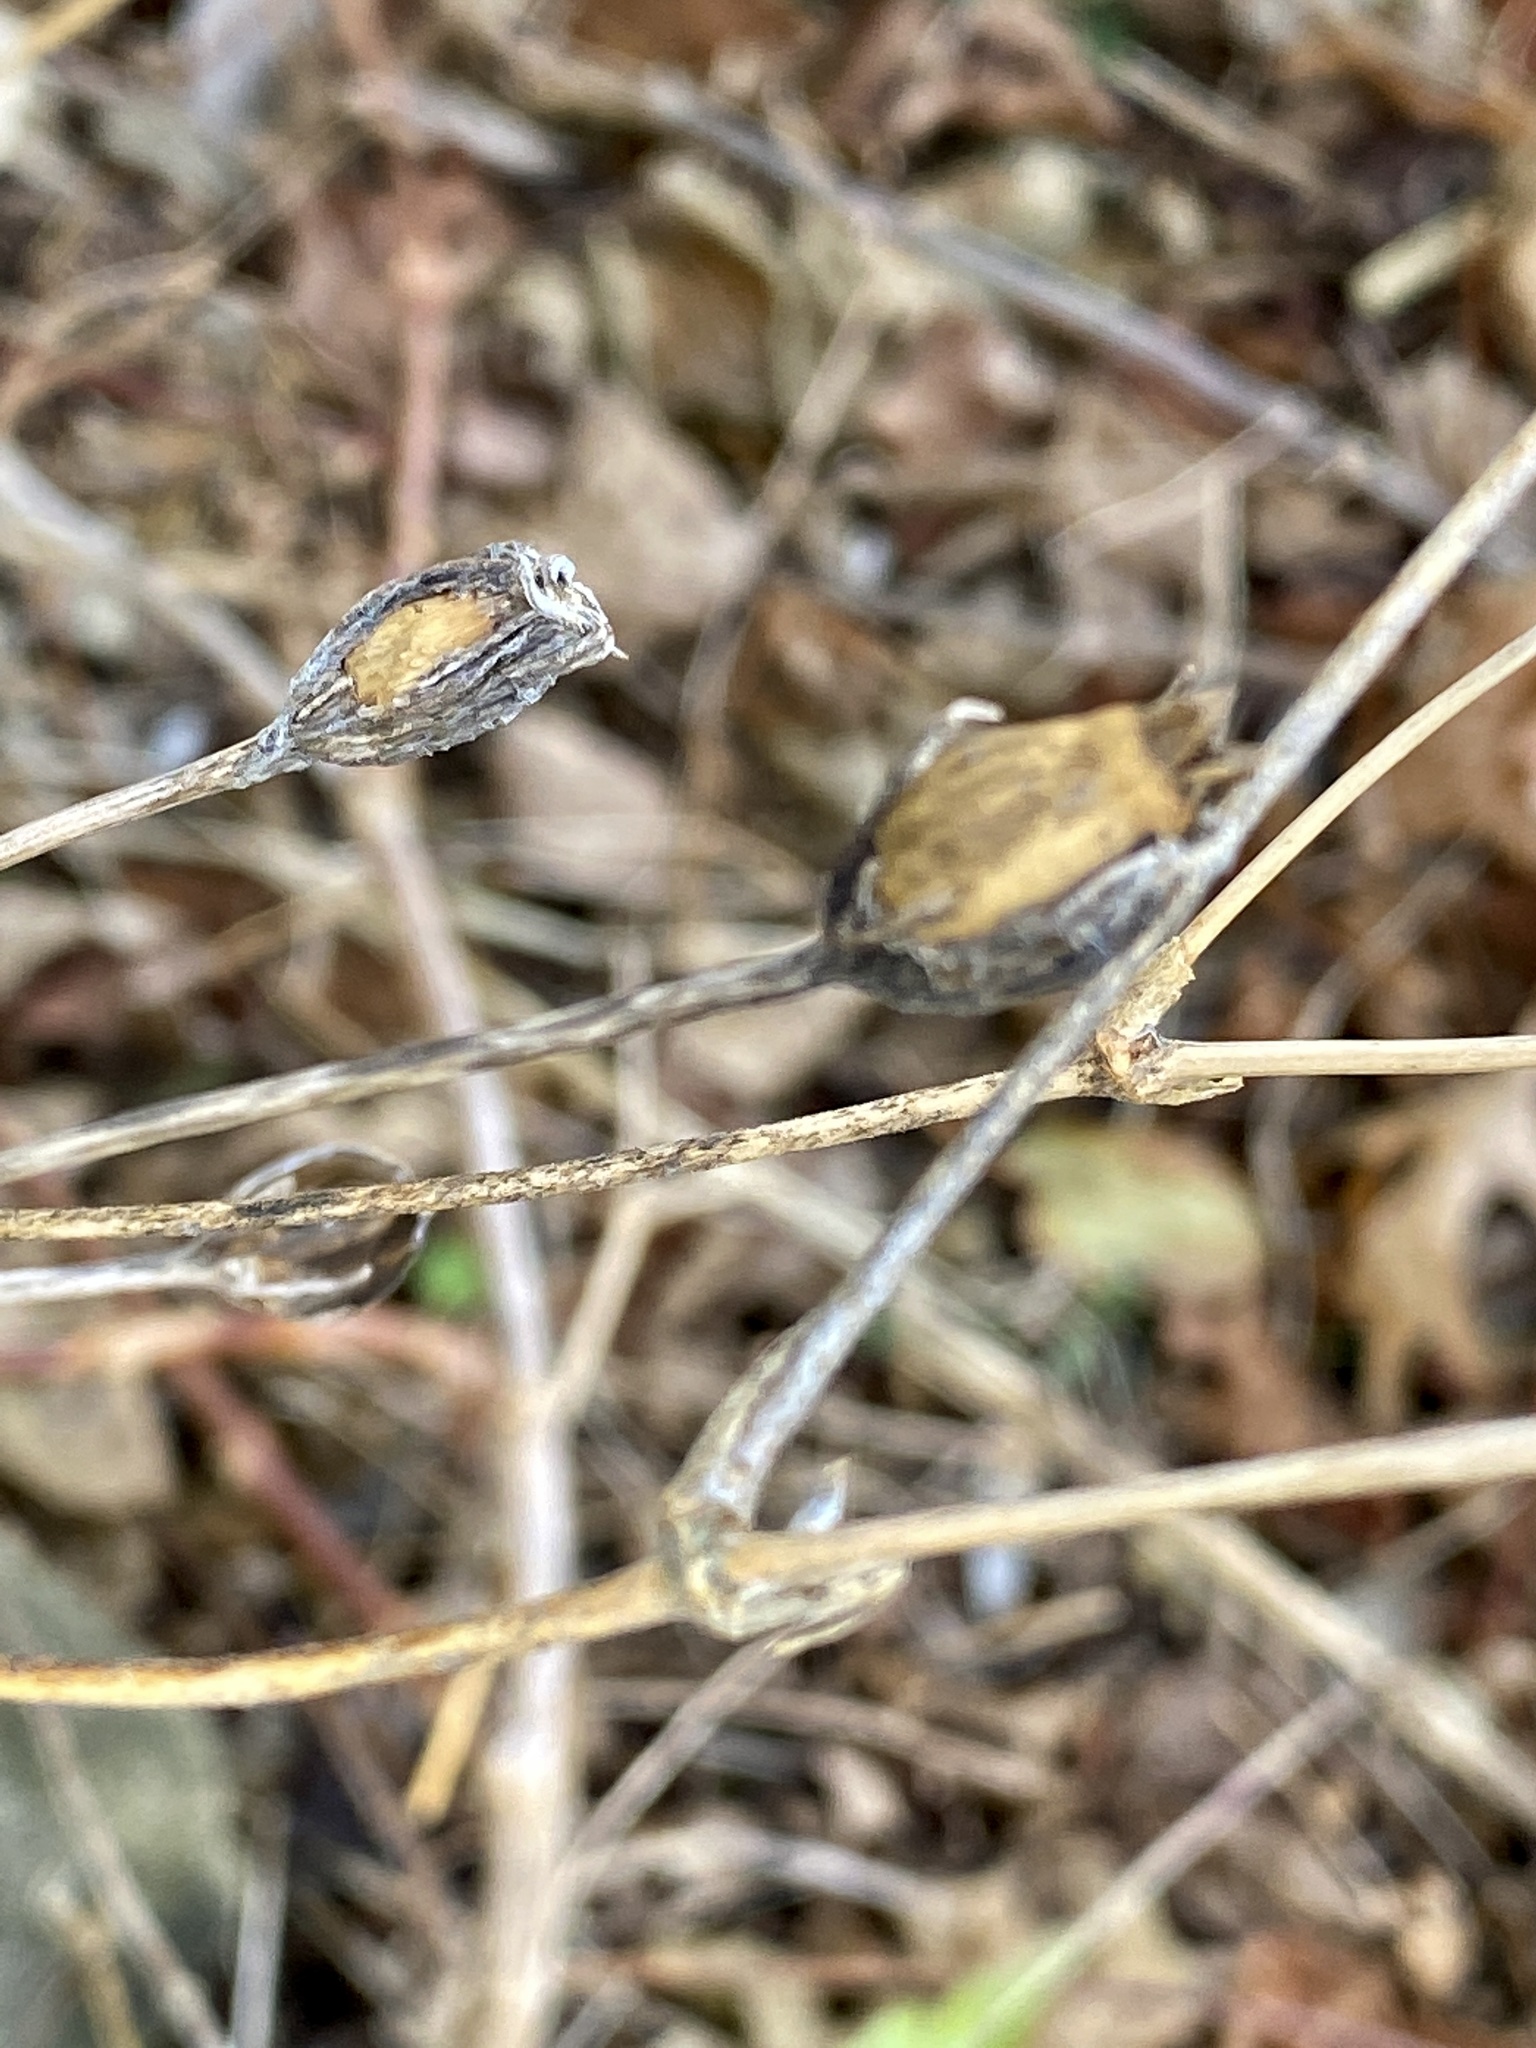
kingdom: Plantae
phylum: Tracheophyta
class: Magnoliopsida
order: Caryophyllales
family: Caryophyllaceae
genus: Silene
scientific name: Silene coronaria
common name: Rose campion
